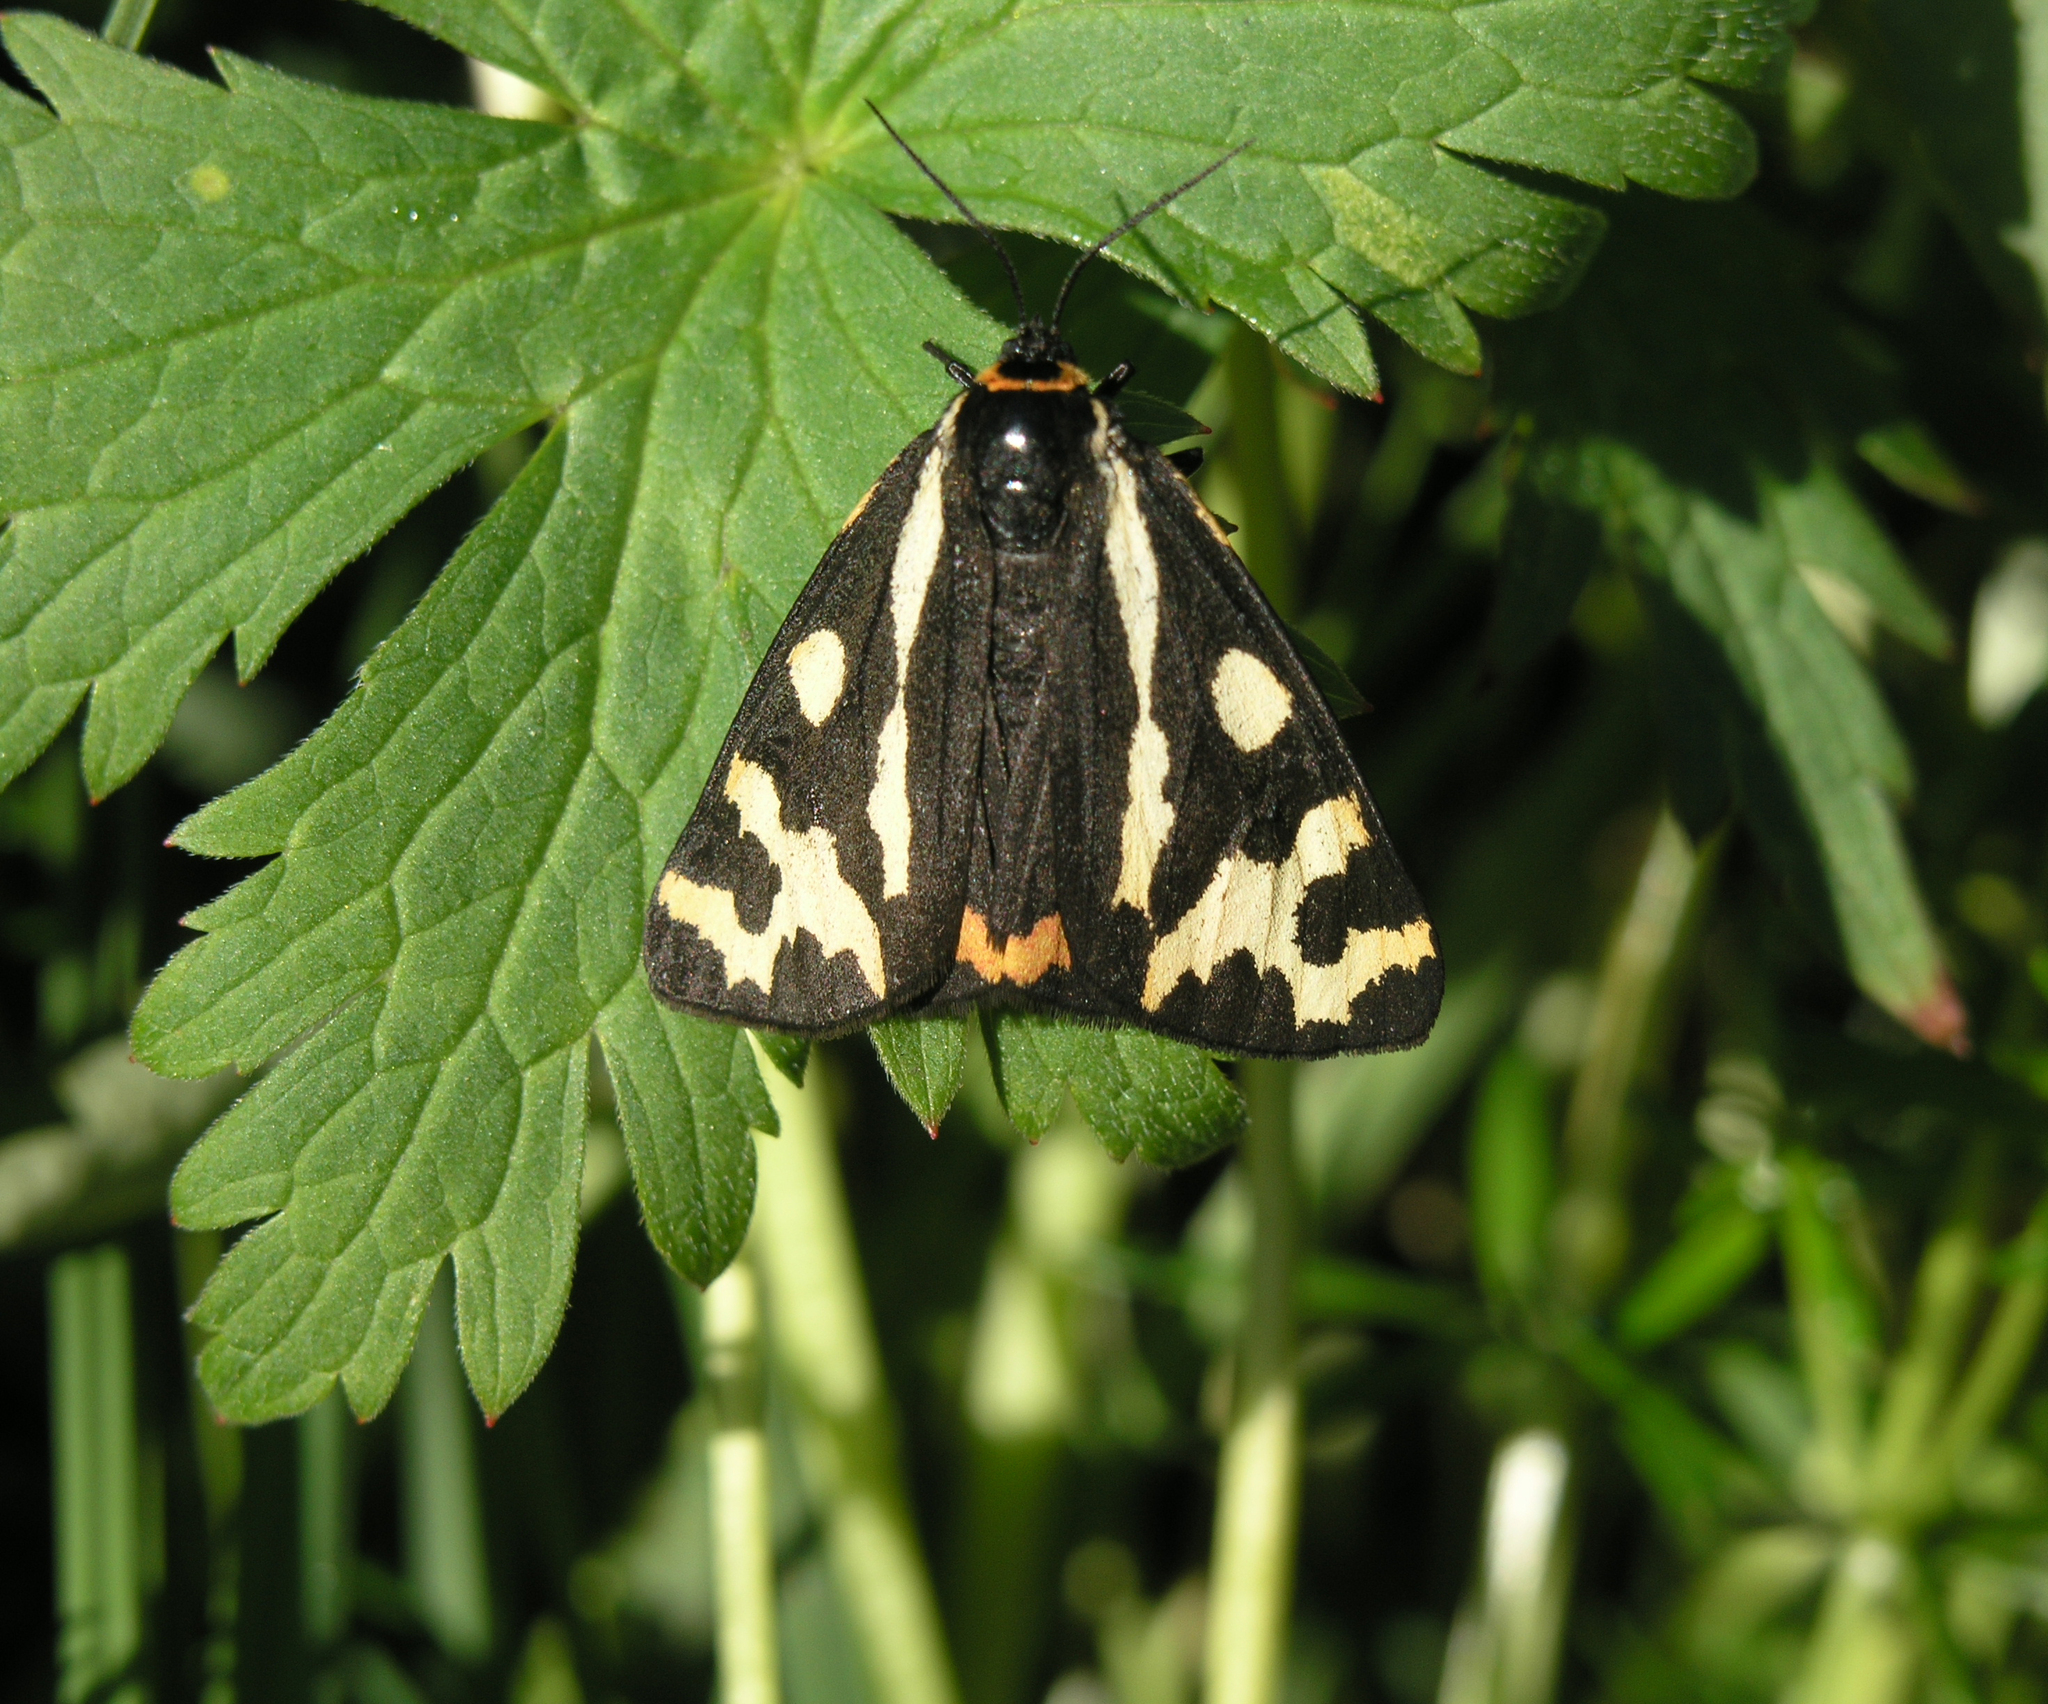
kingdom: Animalia
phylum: Arthropoda
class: Insecta
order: Lepidoptera
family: Erebidae
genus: Parasemia
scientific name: Parasemia plantaginis
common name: Wood tiger
